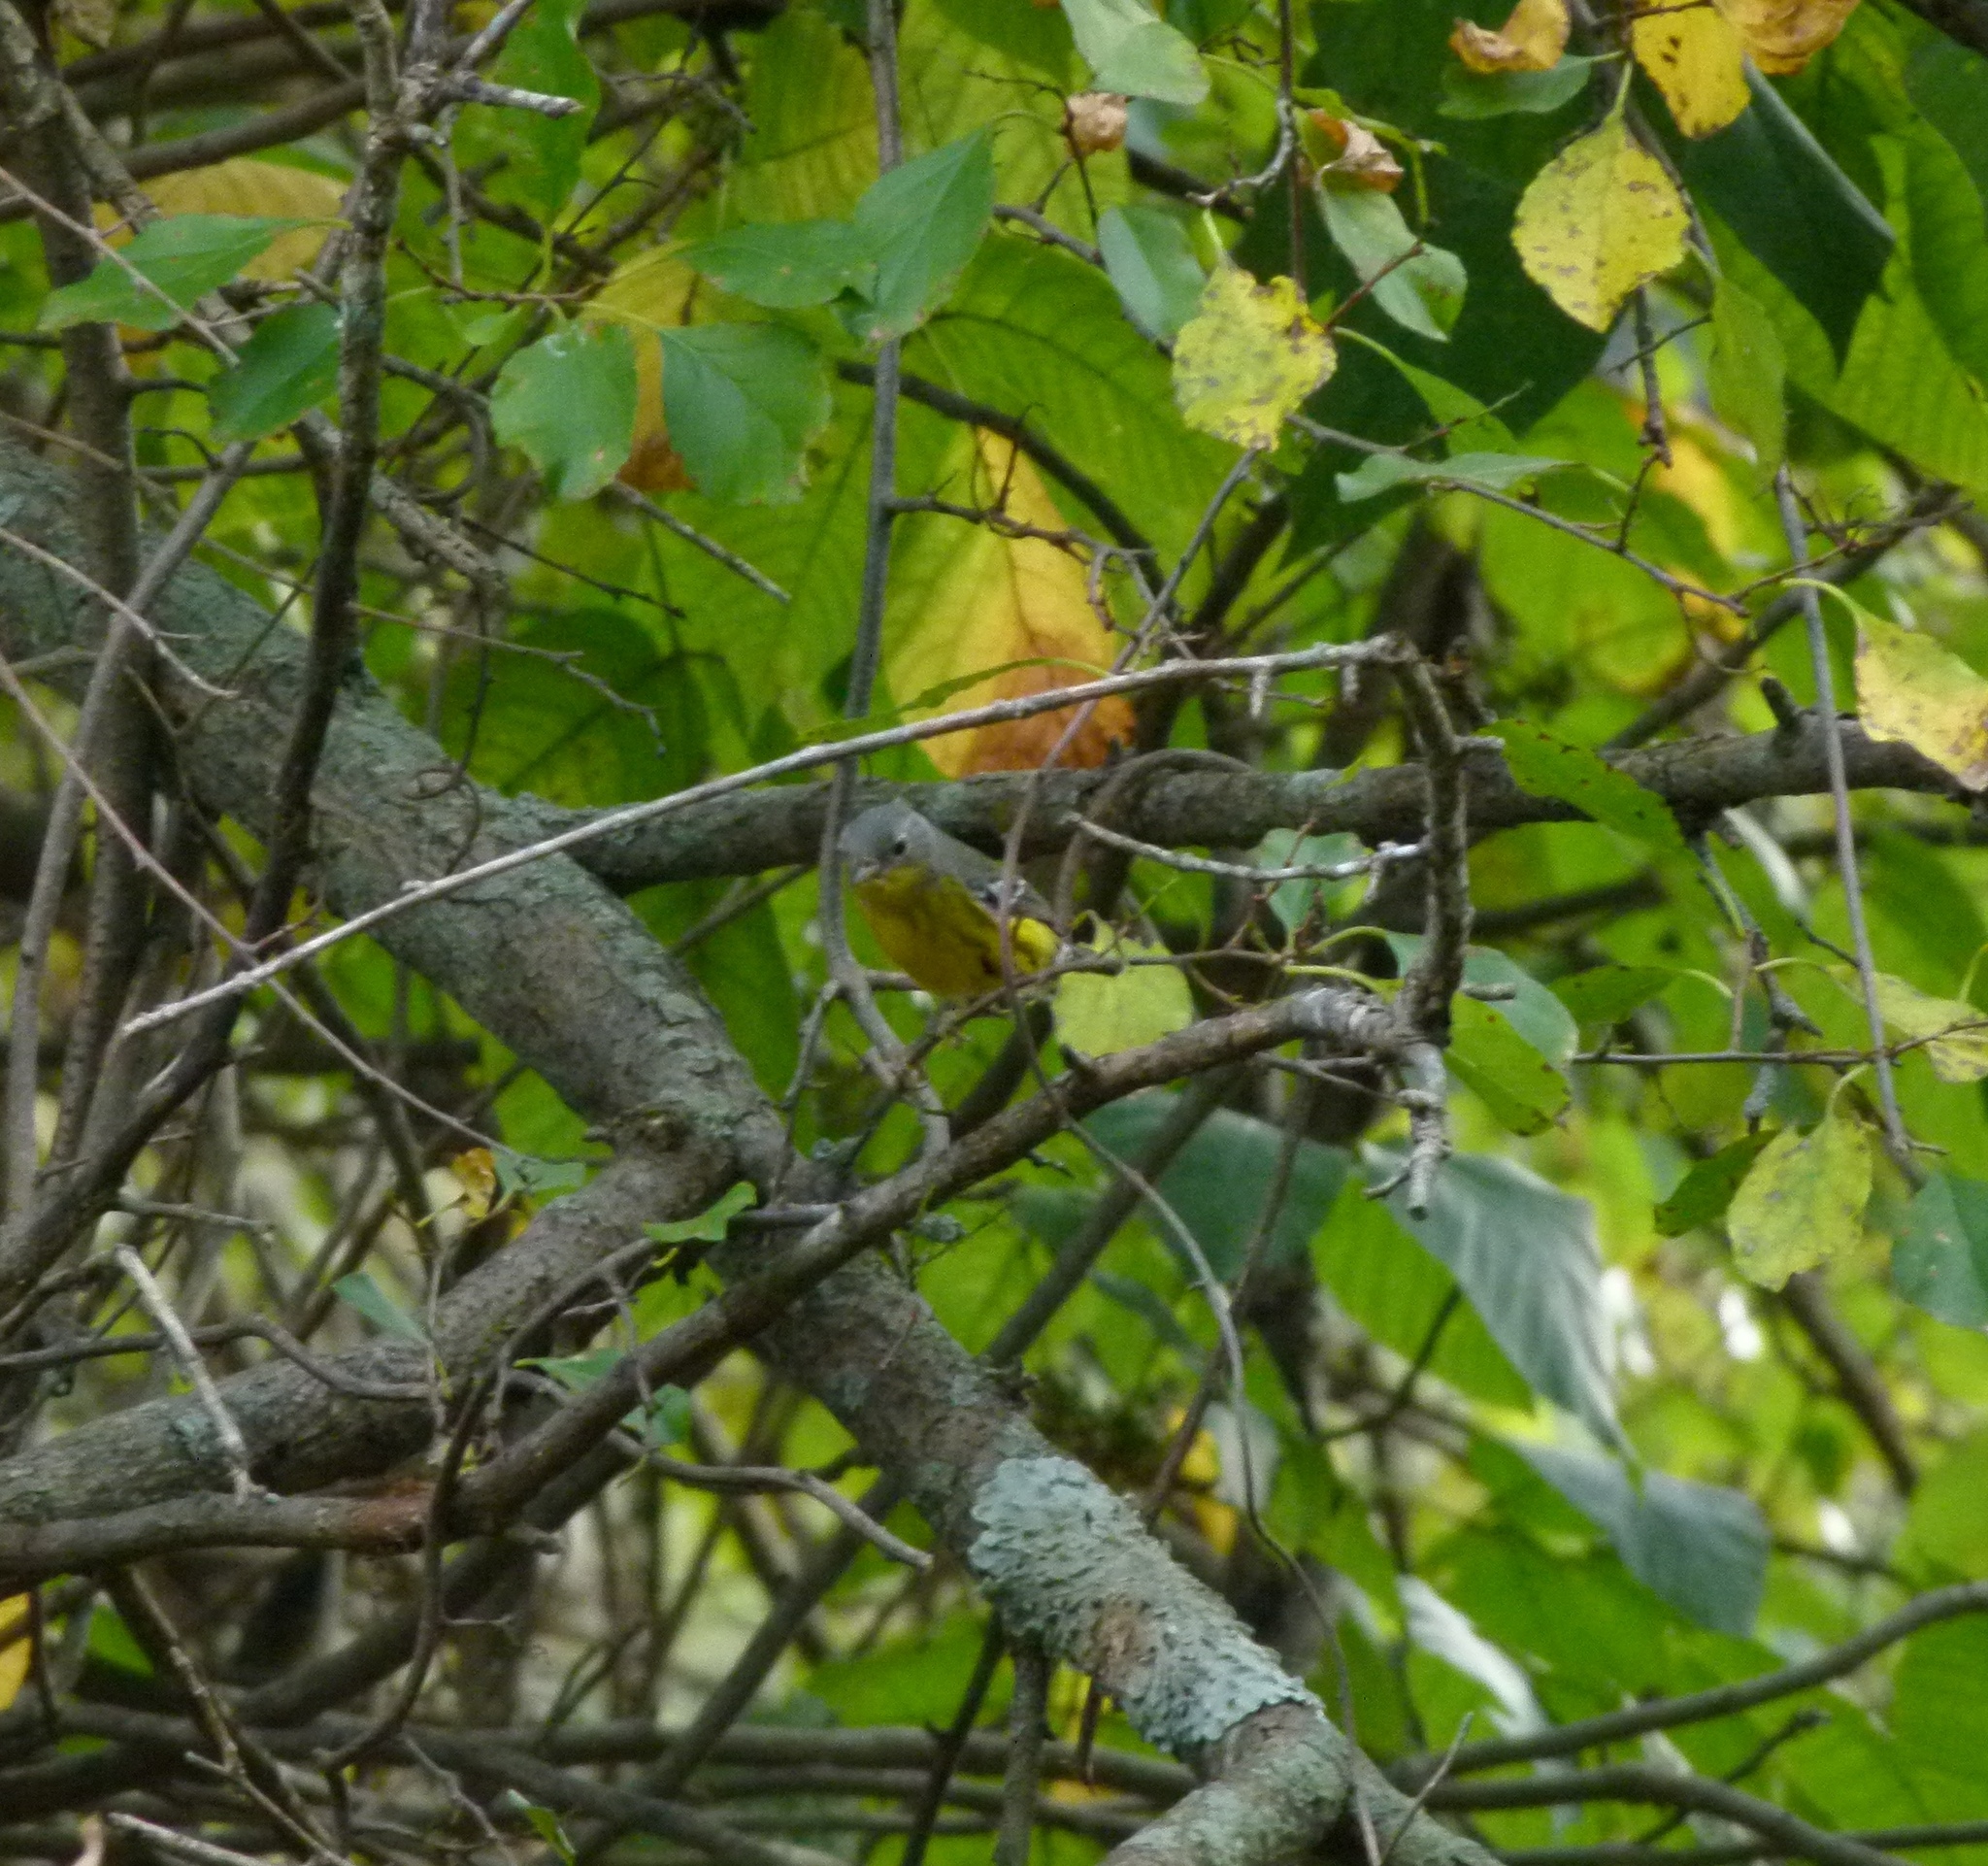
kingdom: Animalia
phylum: Chordata
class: Aves
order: Passeriformes
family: Parulidae
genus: Setophaga
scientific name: Setophaga magnolia
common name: Magnolia warbler
